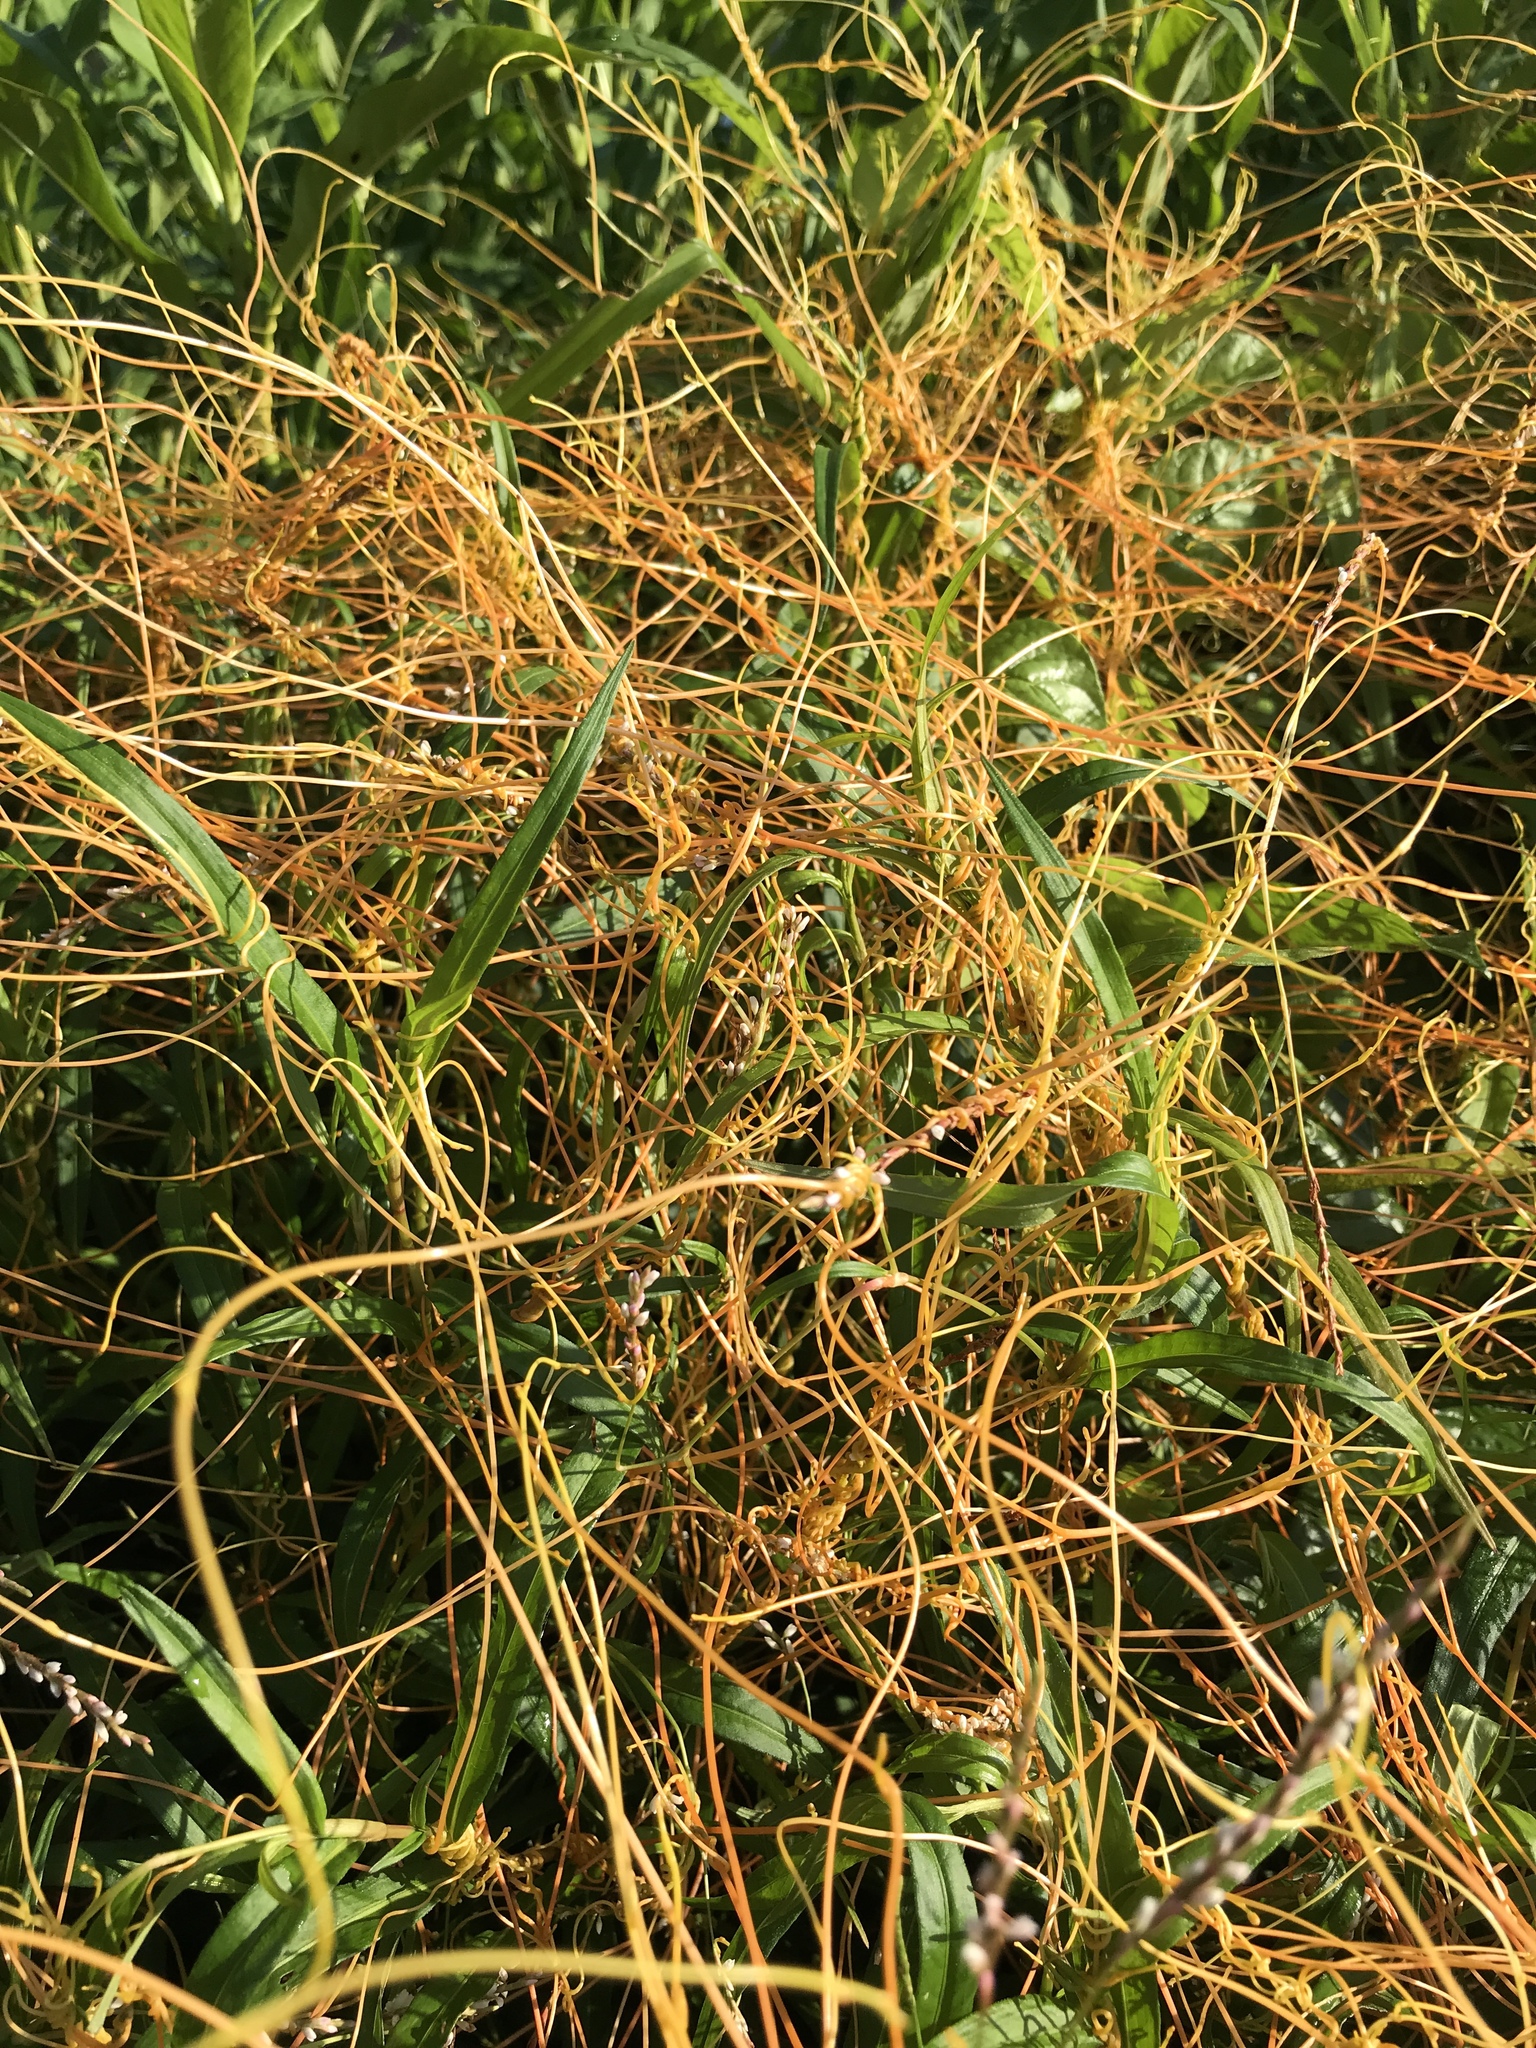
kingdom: Plantae
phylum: Tracheophyta
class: Magnoliopsida
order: Solanales
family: Convolvulaceae
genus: Cuscuta
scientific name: Cuscuta gronovii
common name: Common dodder
